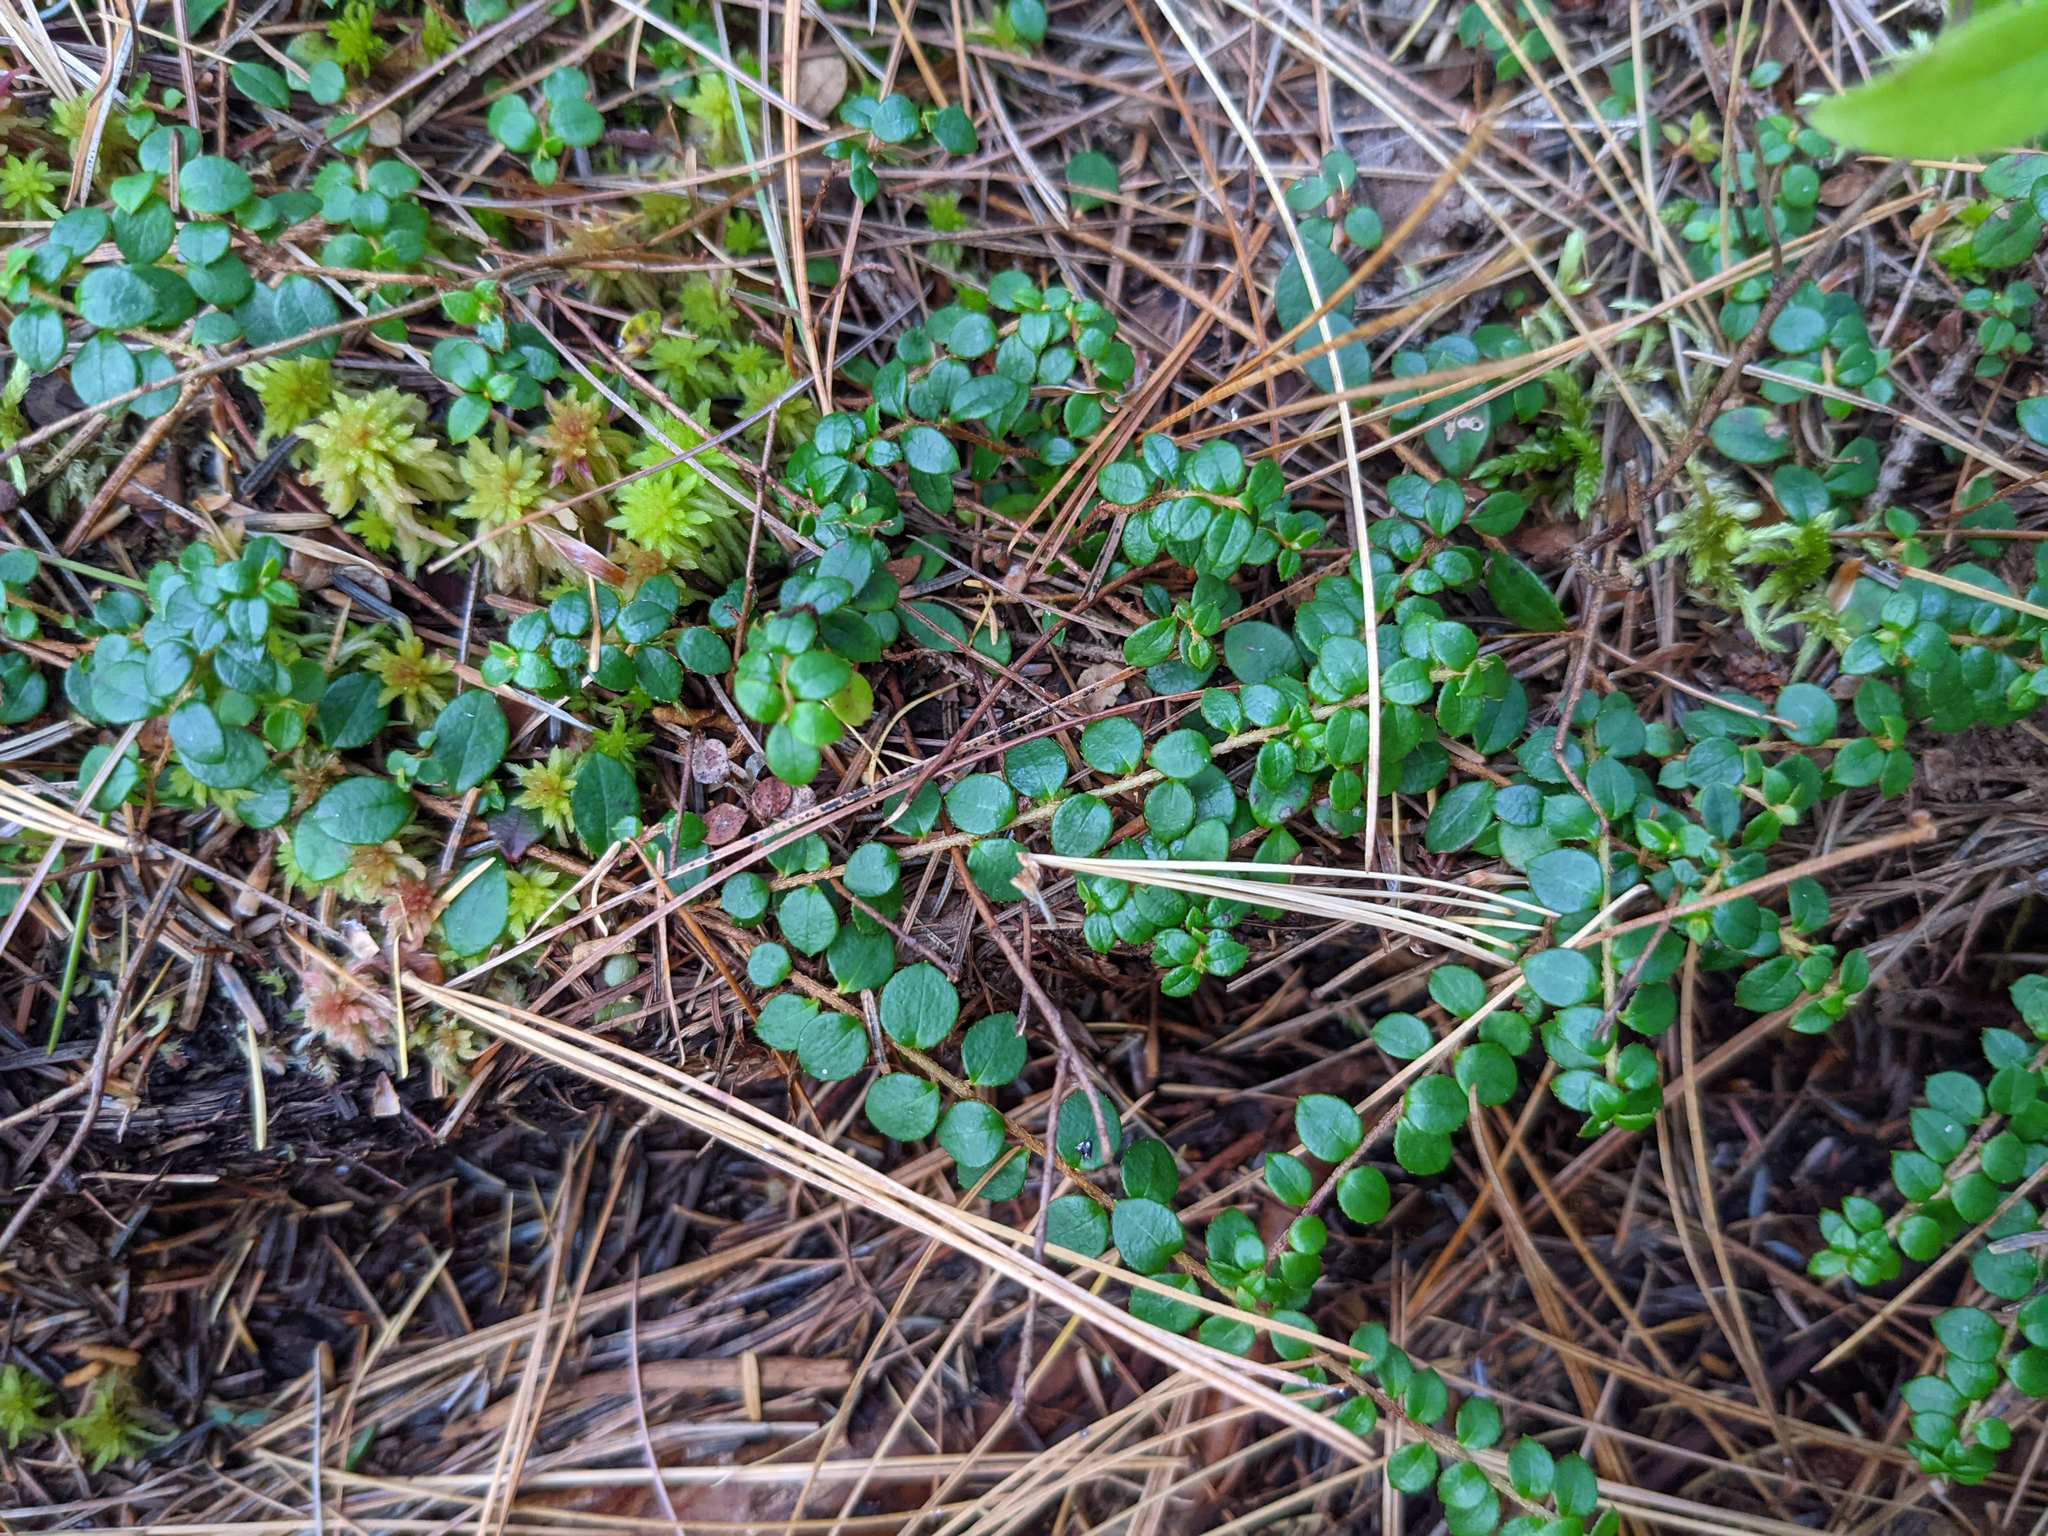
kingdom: Plantae
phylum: Tracheophyta
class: Magnoliopsida
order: Ericales
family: Ericaceae
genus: Gaultheria
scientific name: Gaultheria hispidula
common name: Cancer wintergreen
